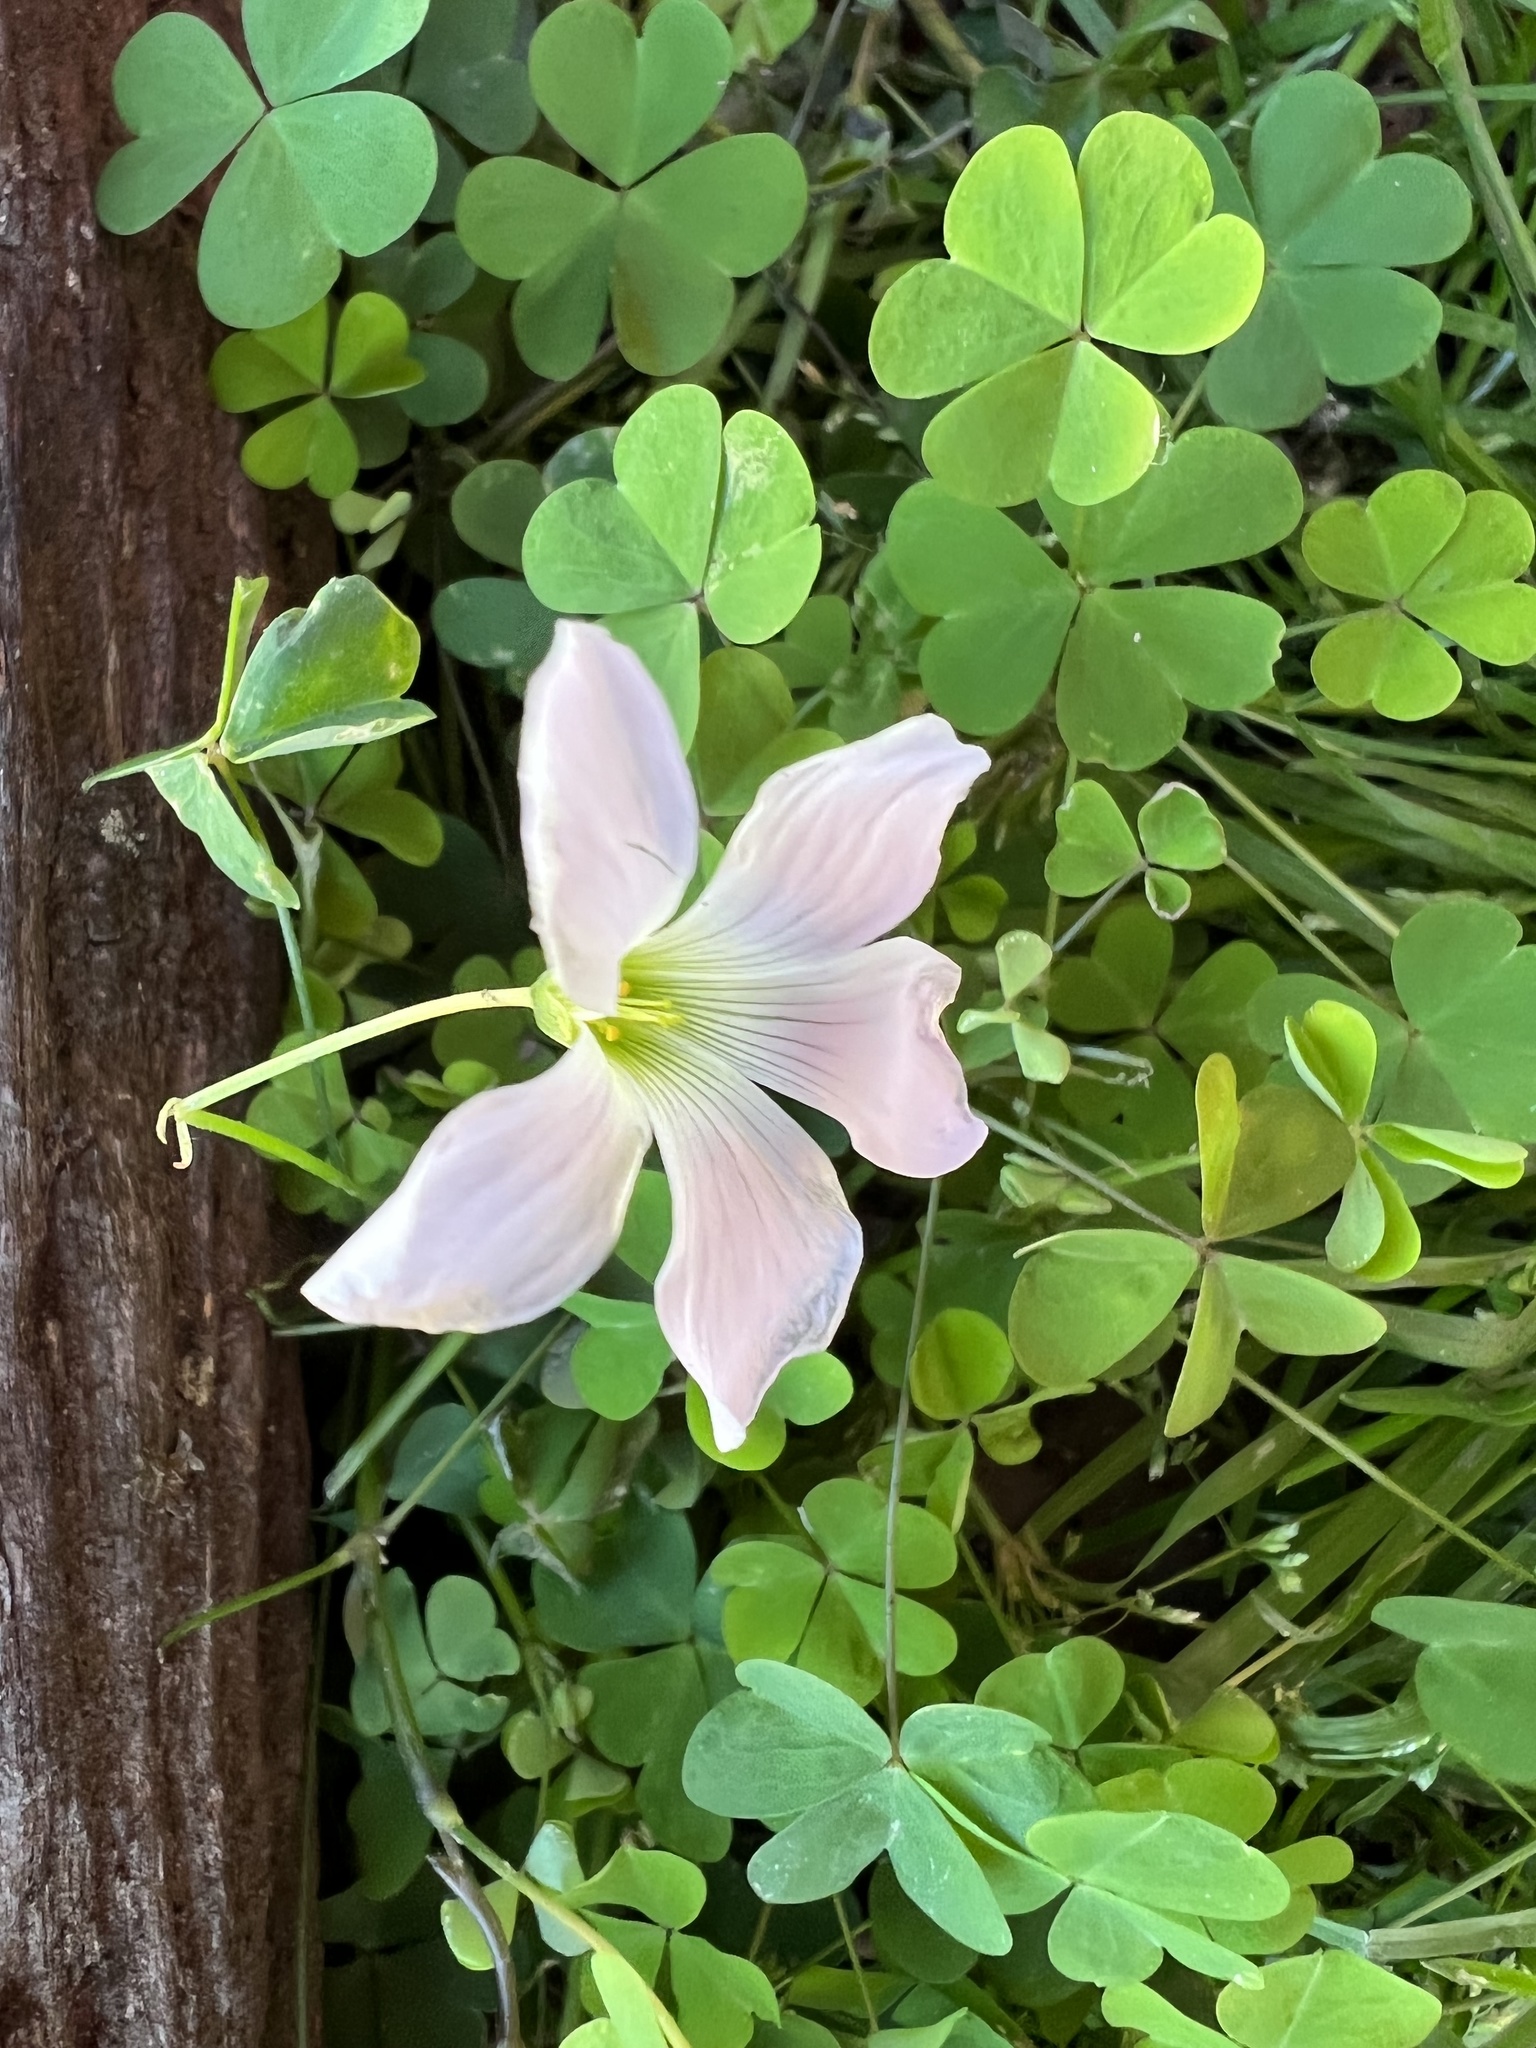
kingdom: Plantae
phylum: Tracheophyta
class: Magnoliopsida
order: Oxalidales
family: Oxalidaceae
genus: Oxalis
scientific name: Oxalis incarnata
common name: Pale pink-sorrel
